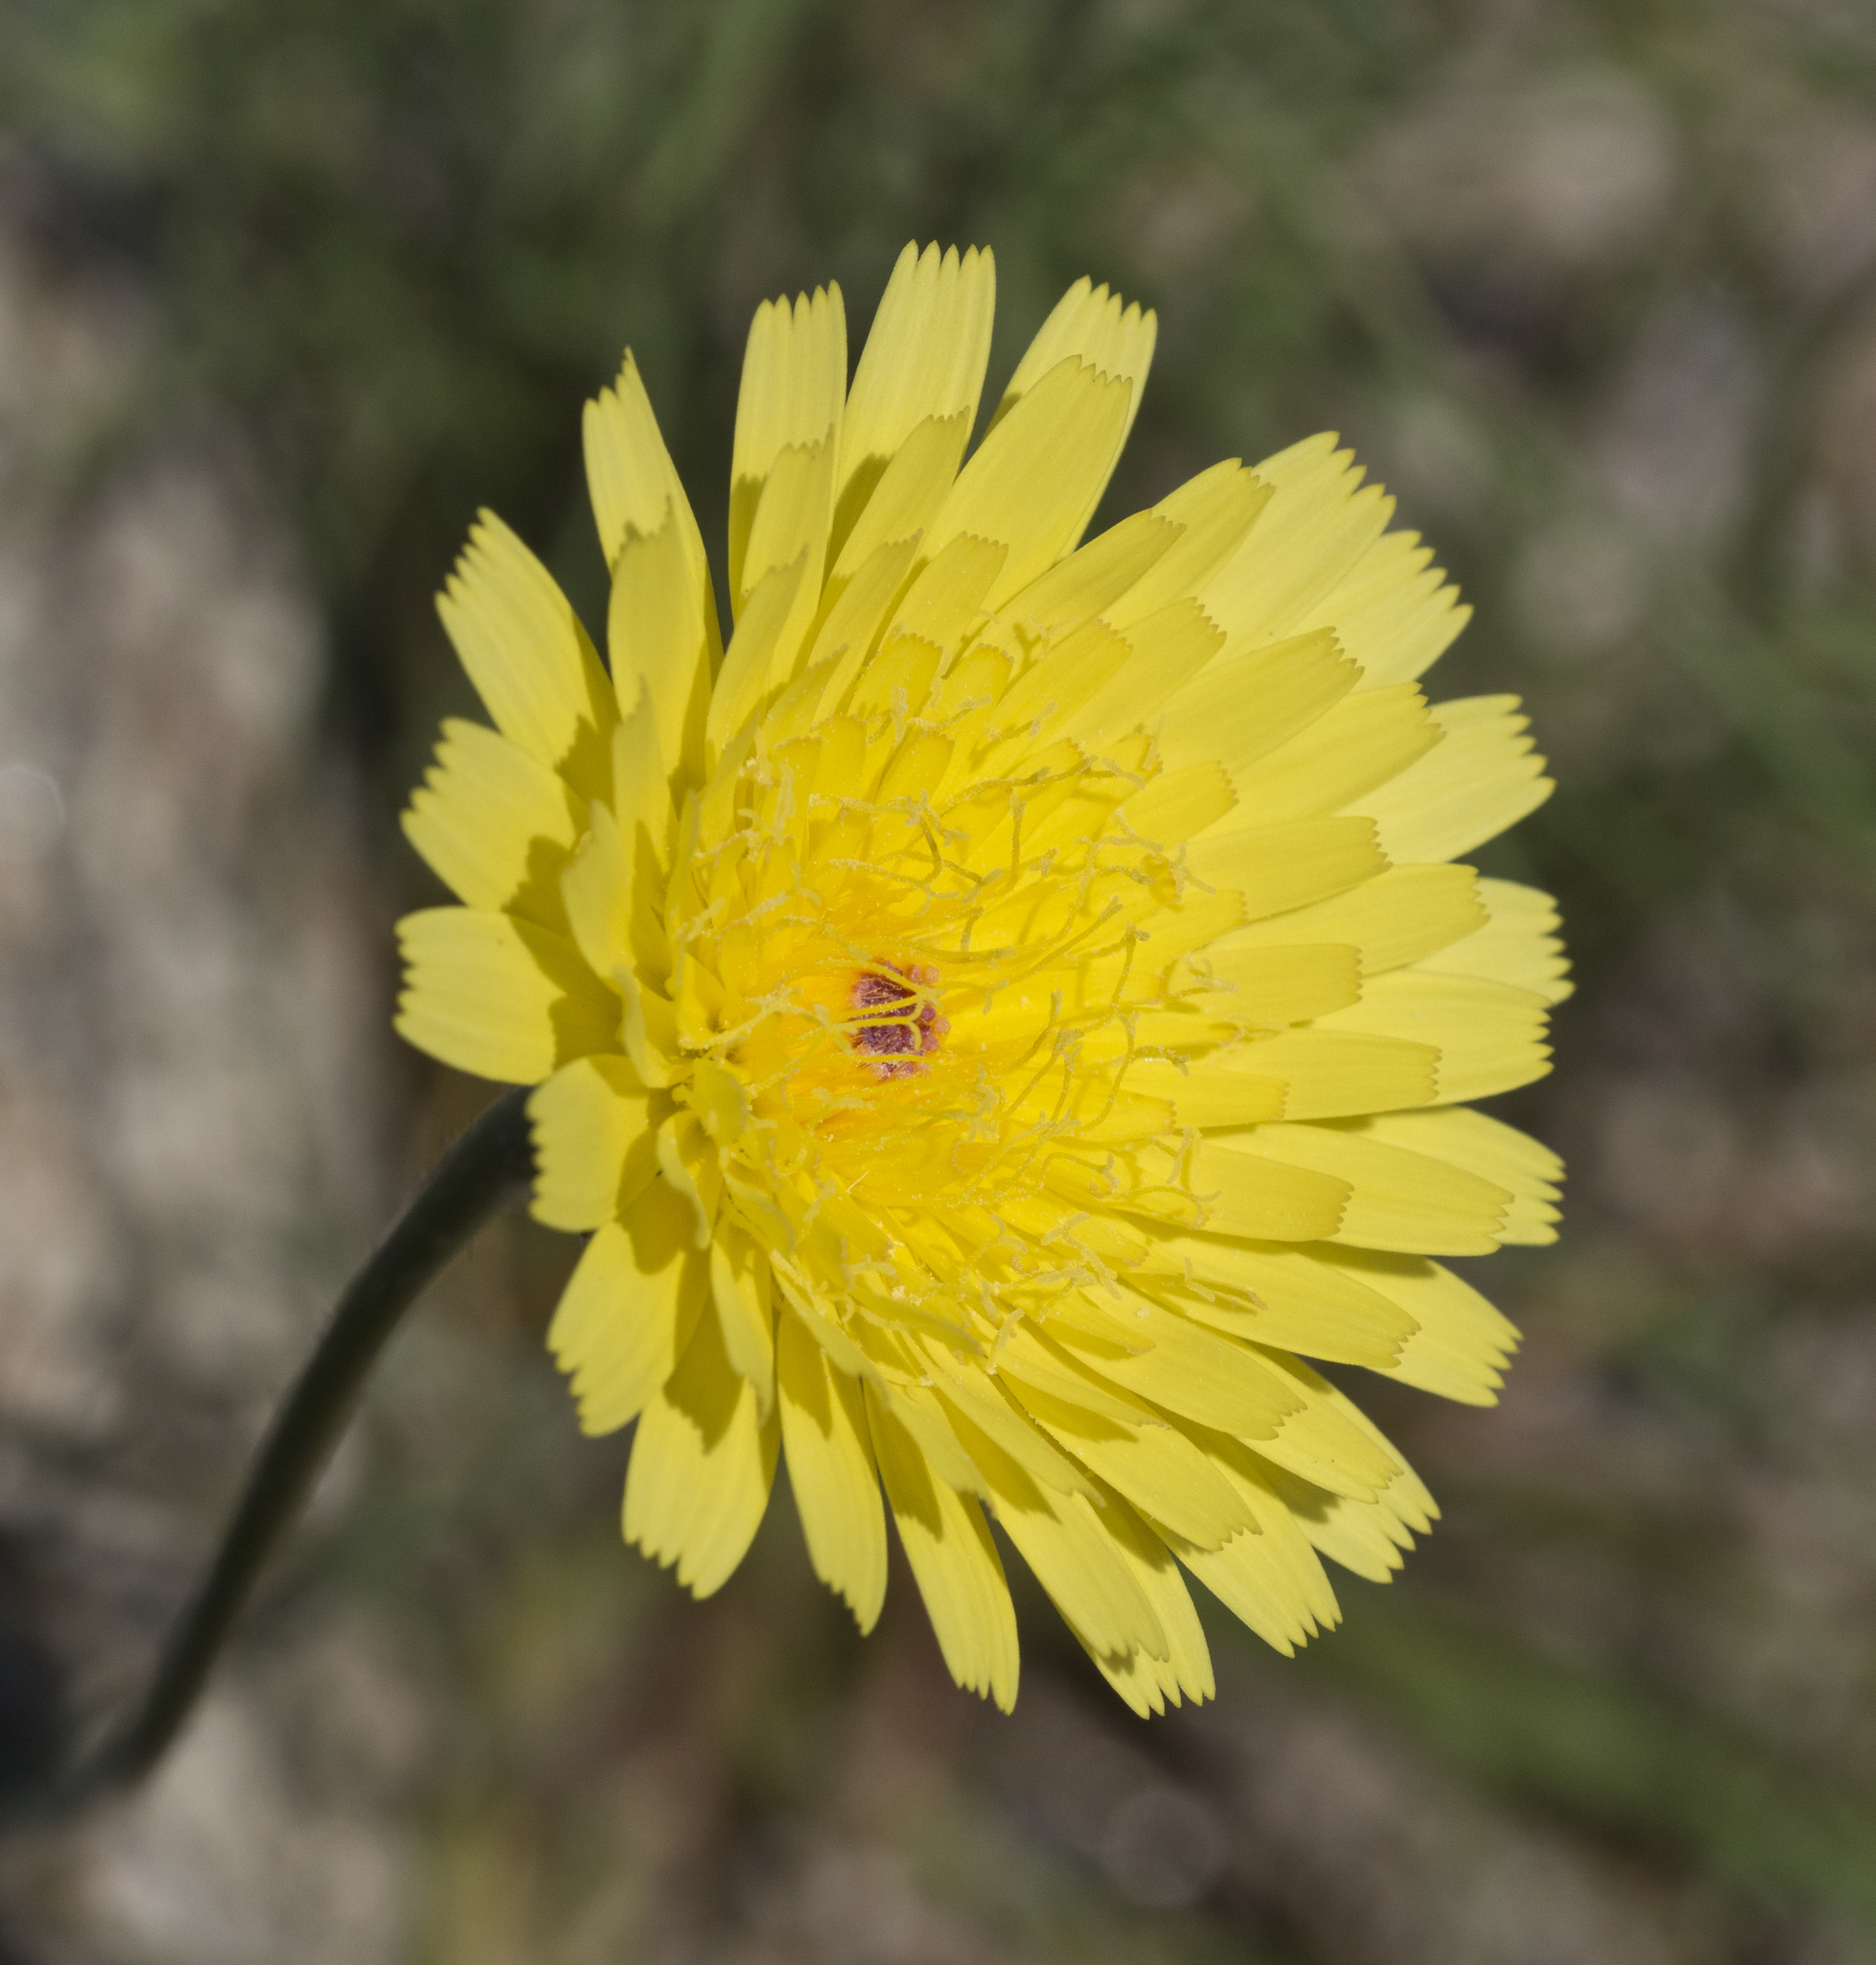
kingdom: Plantae
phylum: Tracheophyta
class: Magnoliopsida
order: Asterales
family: Asteraceae
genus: Malacothrix
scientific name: Malacothrix glabrata
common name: Smooth desert-dandelion
